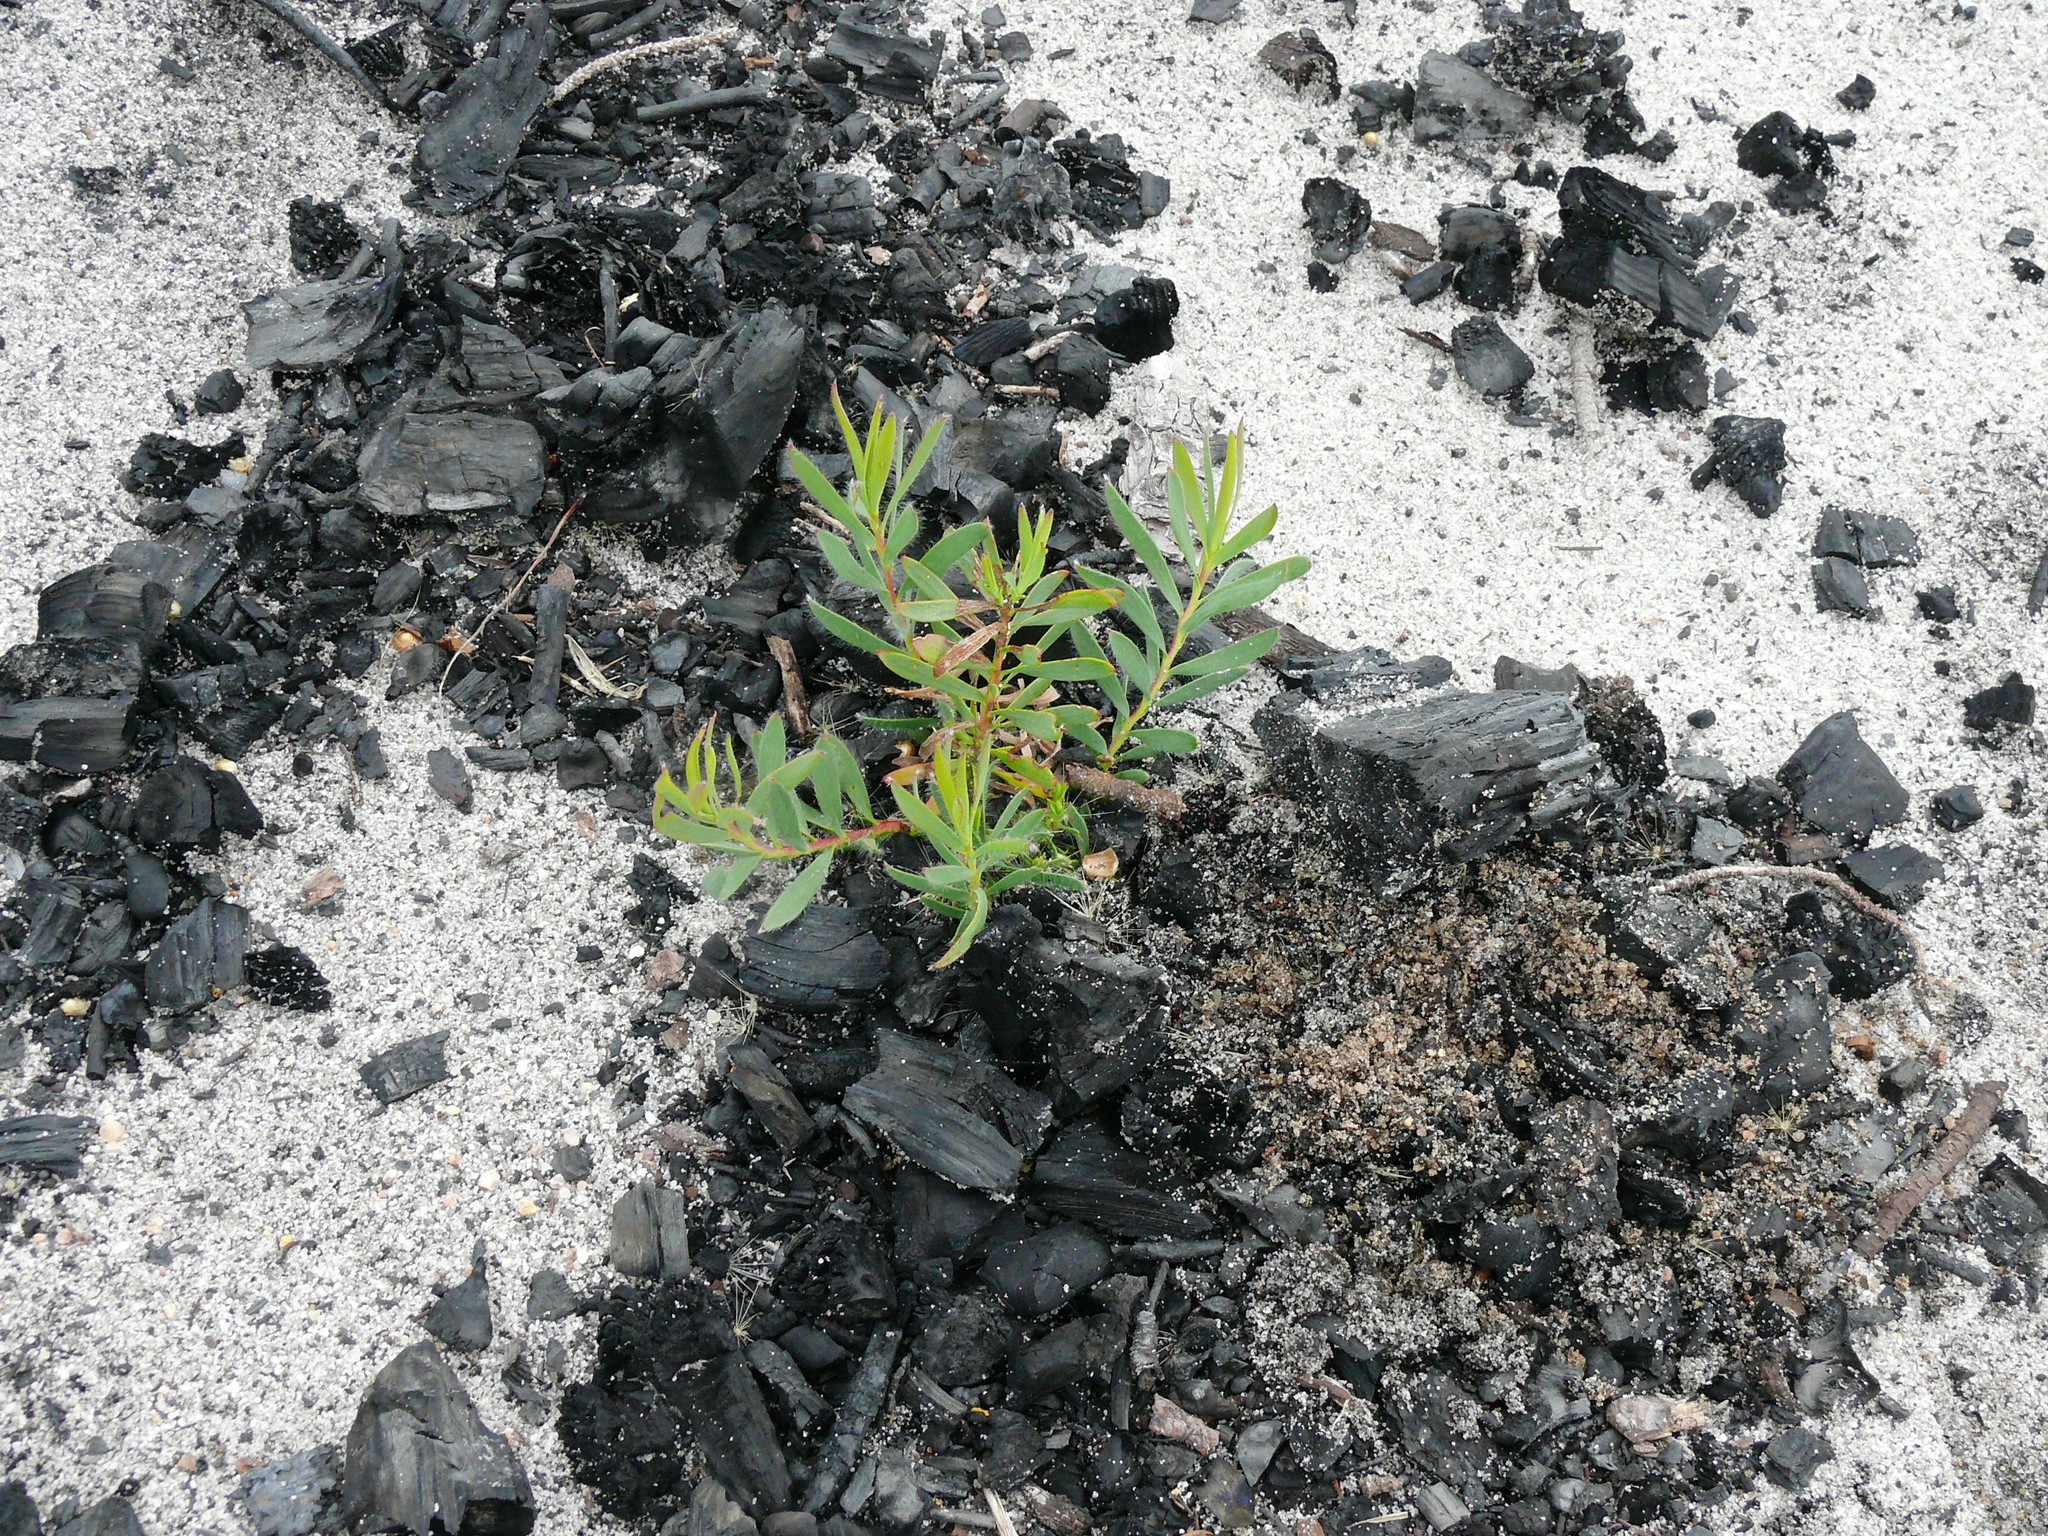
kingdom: Plantae
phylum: Tracheophyta
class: Magnoliopsida
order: Proteales
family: Proteaceae
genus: Leucadendron
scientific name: Leucadendron salignum
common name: Common sunshine conebush
